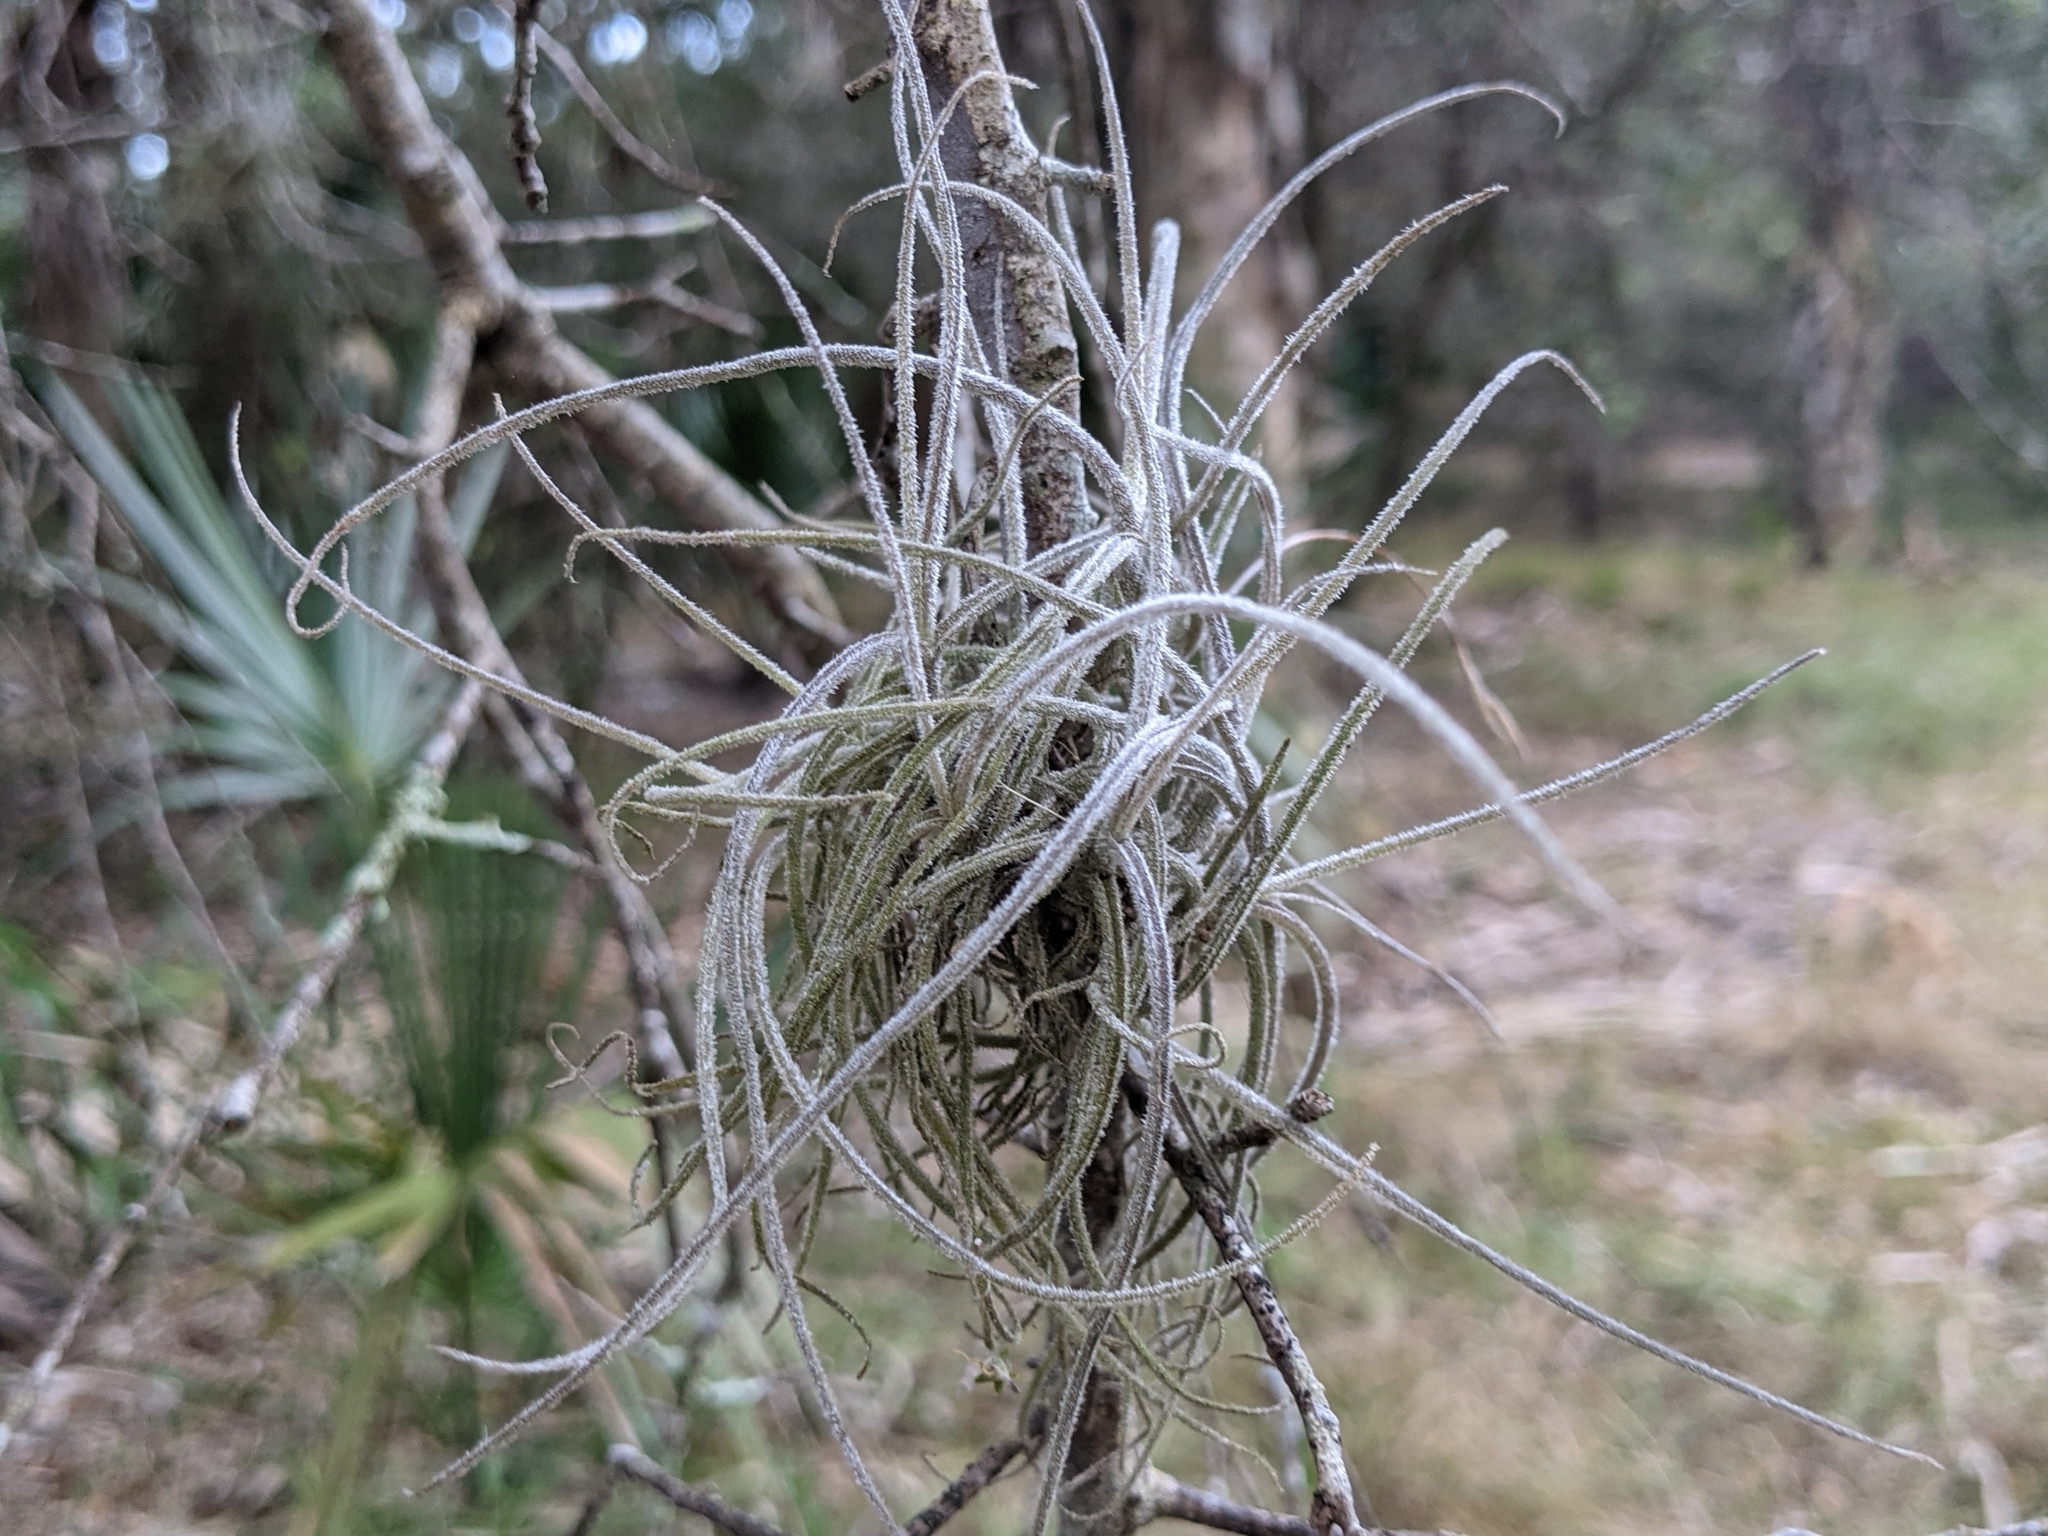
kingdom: Plantae
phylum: Tracheophyta
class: Liliopsida
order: Poales
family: Bromeliaceae
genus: Tillandsia
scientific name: Tillandsia recurvata
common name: Small ballmoss
